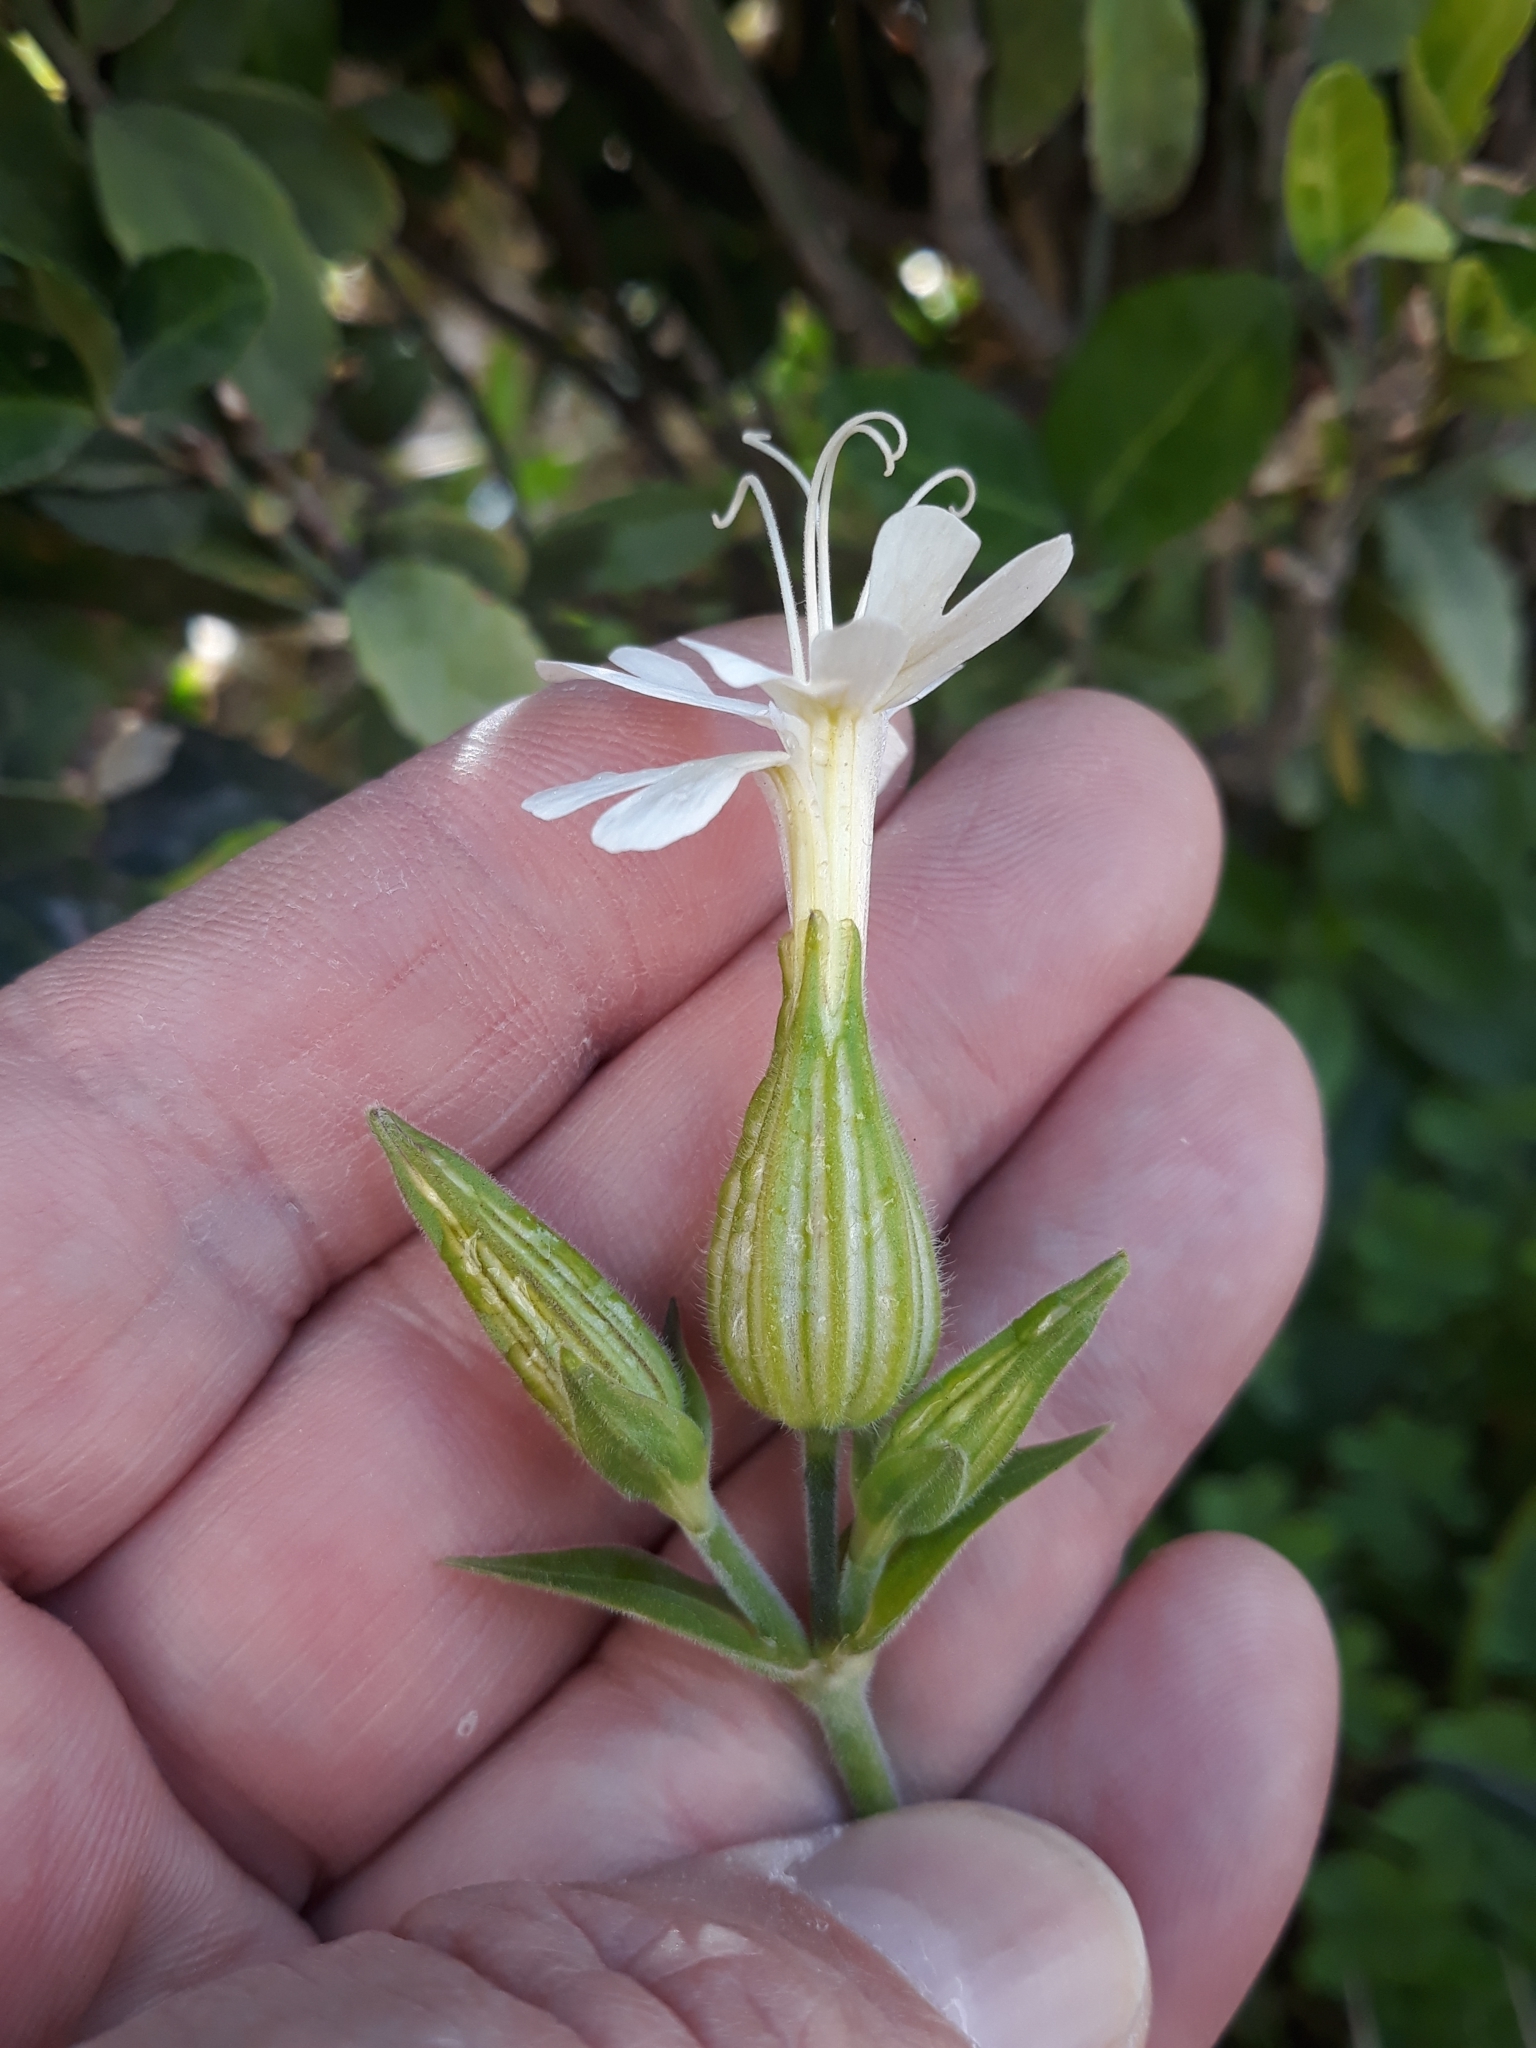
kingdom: Plantae
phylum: Tracheophyta
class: Magnoliopsida
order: Caryophyllales
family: Caryophyllaceae
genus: Silene
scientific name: Silene latifolia
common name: White campion
